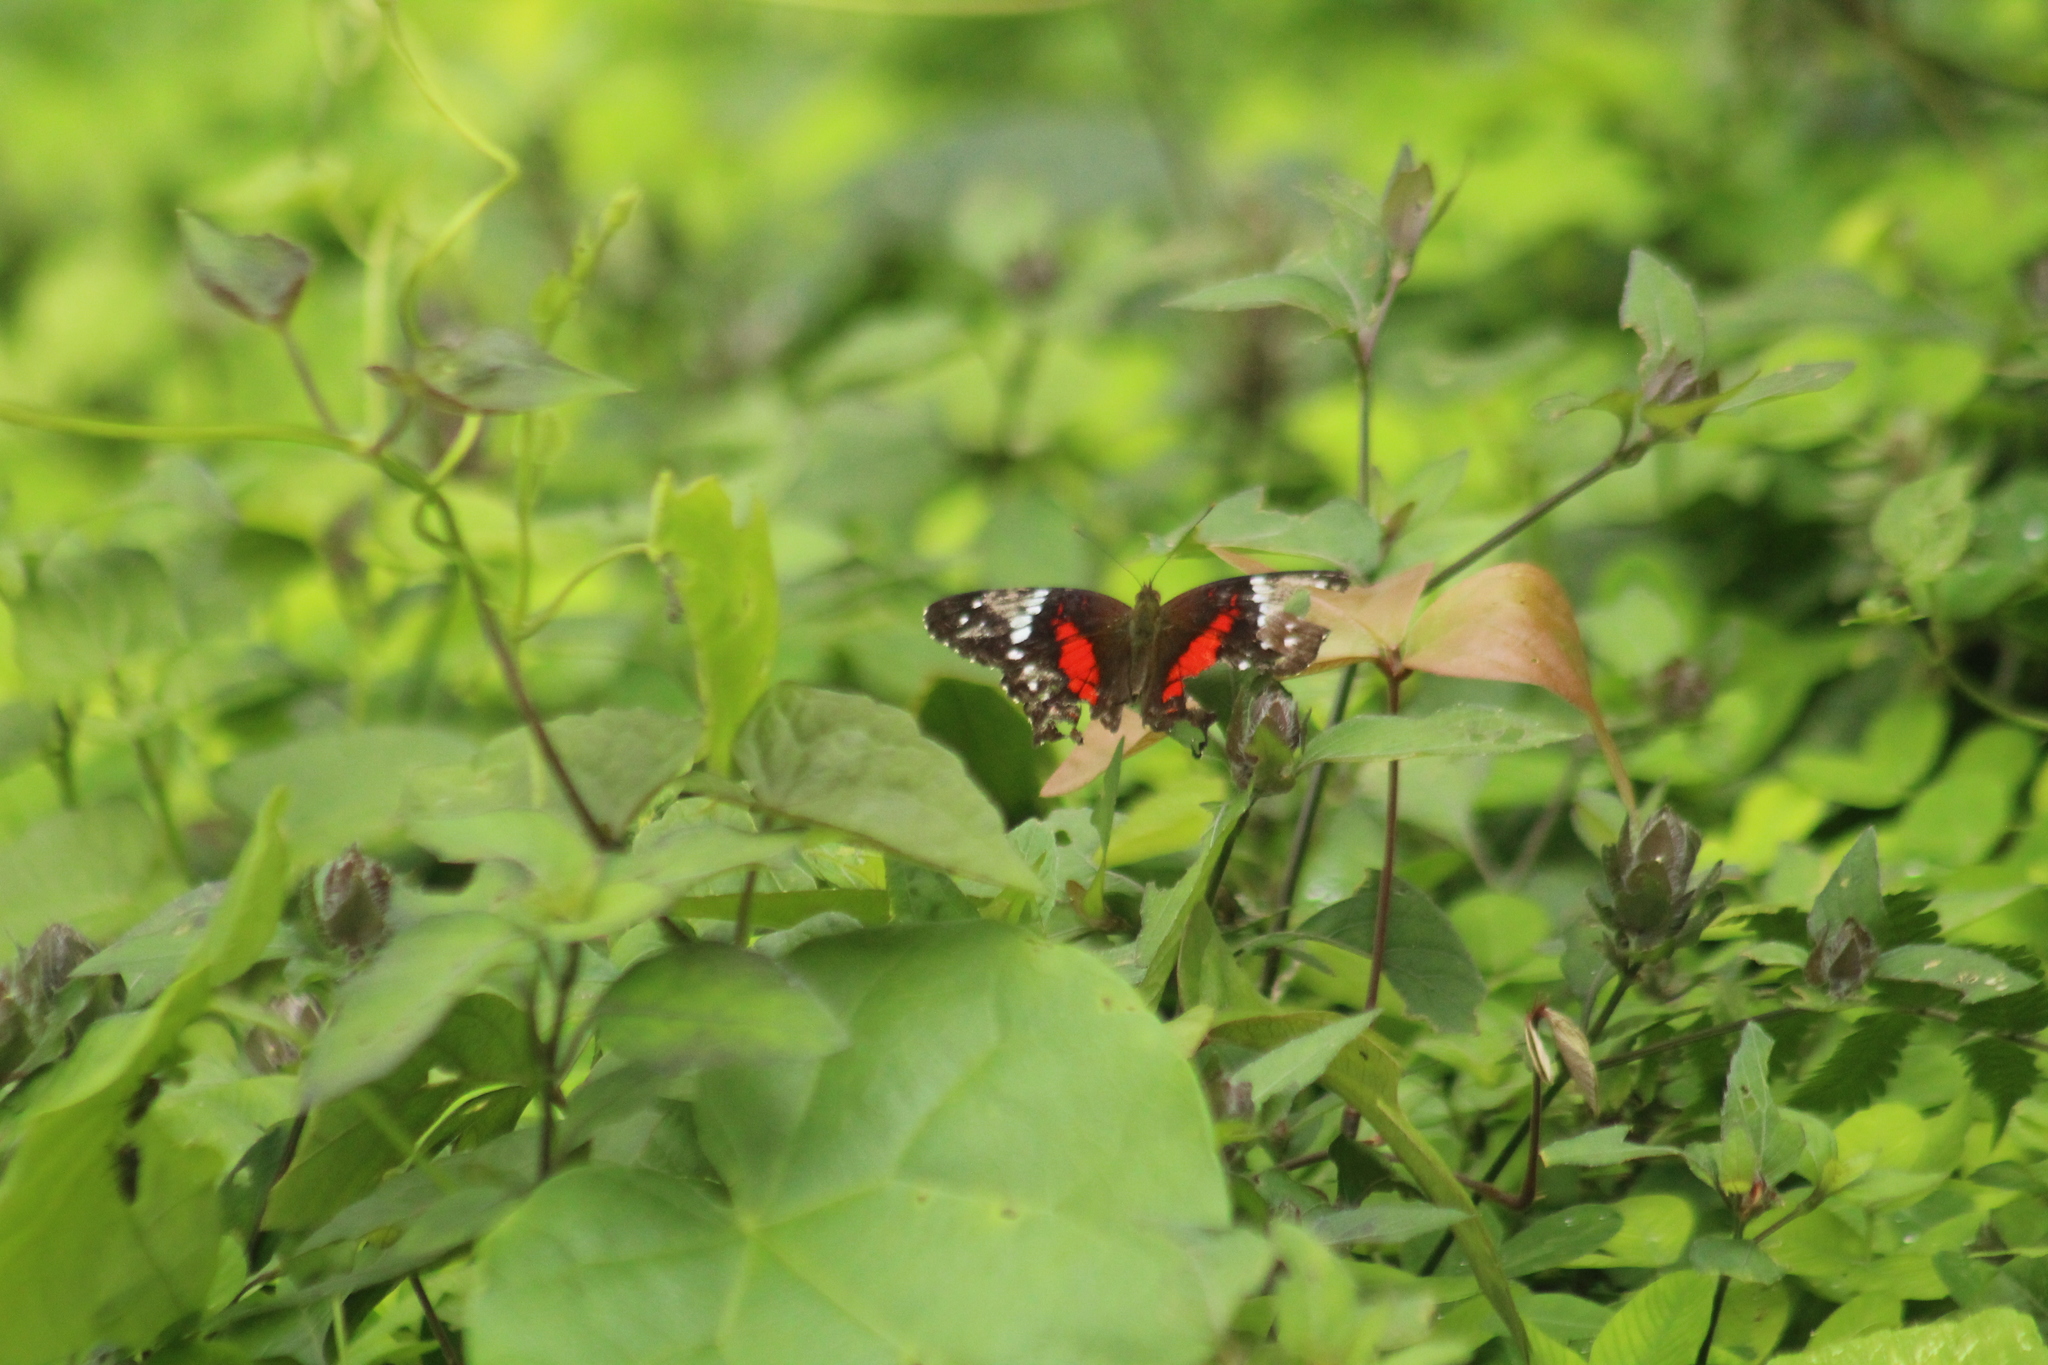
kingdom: Animalia
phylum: Arthropoda
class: Insecta
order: Lepidoptera
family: Nymphalidae
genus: Anartia
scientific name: Anartia amathea
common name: Red peacock
